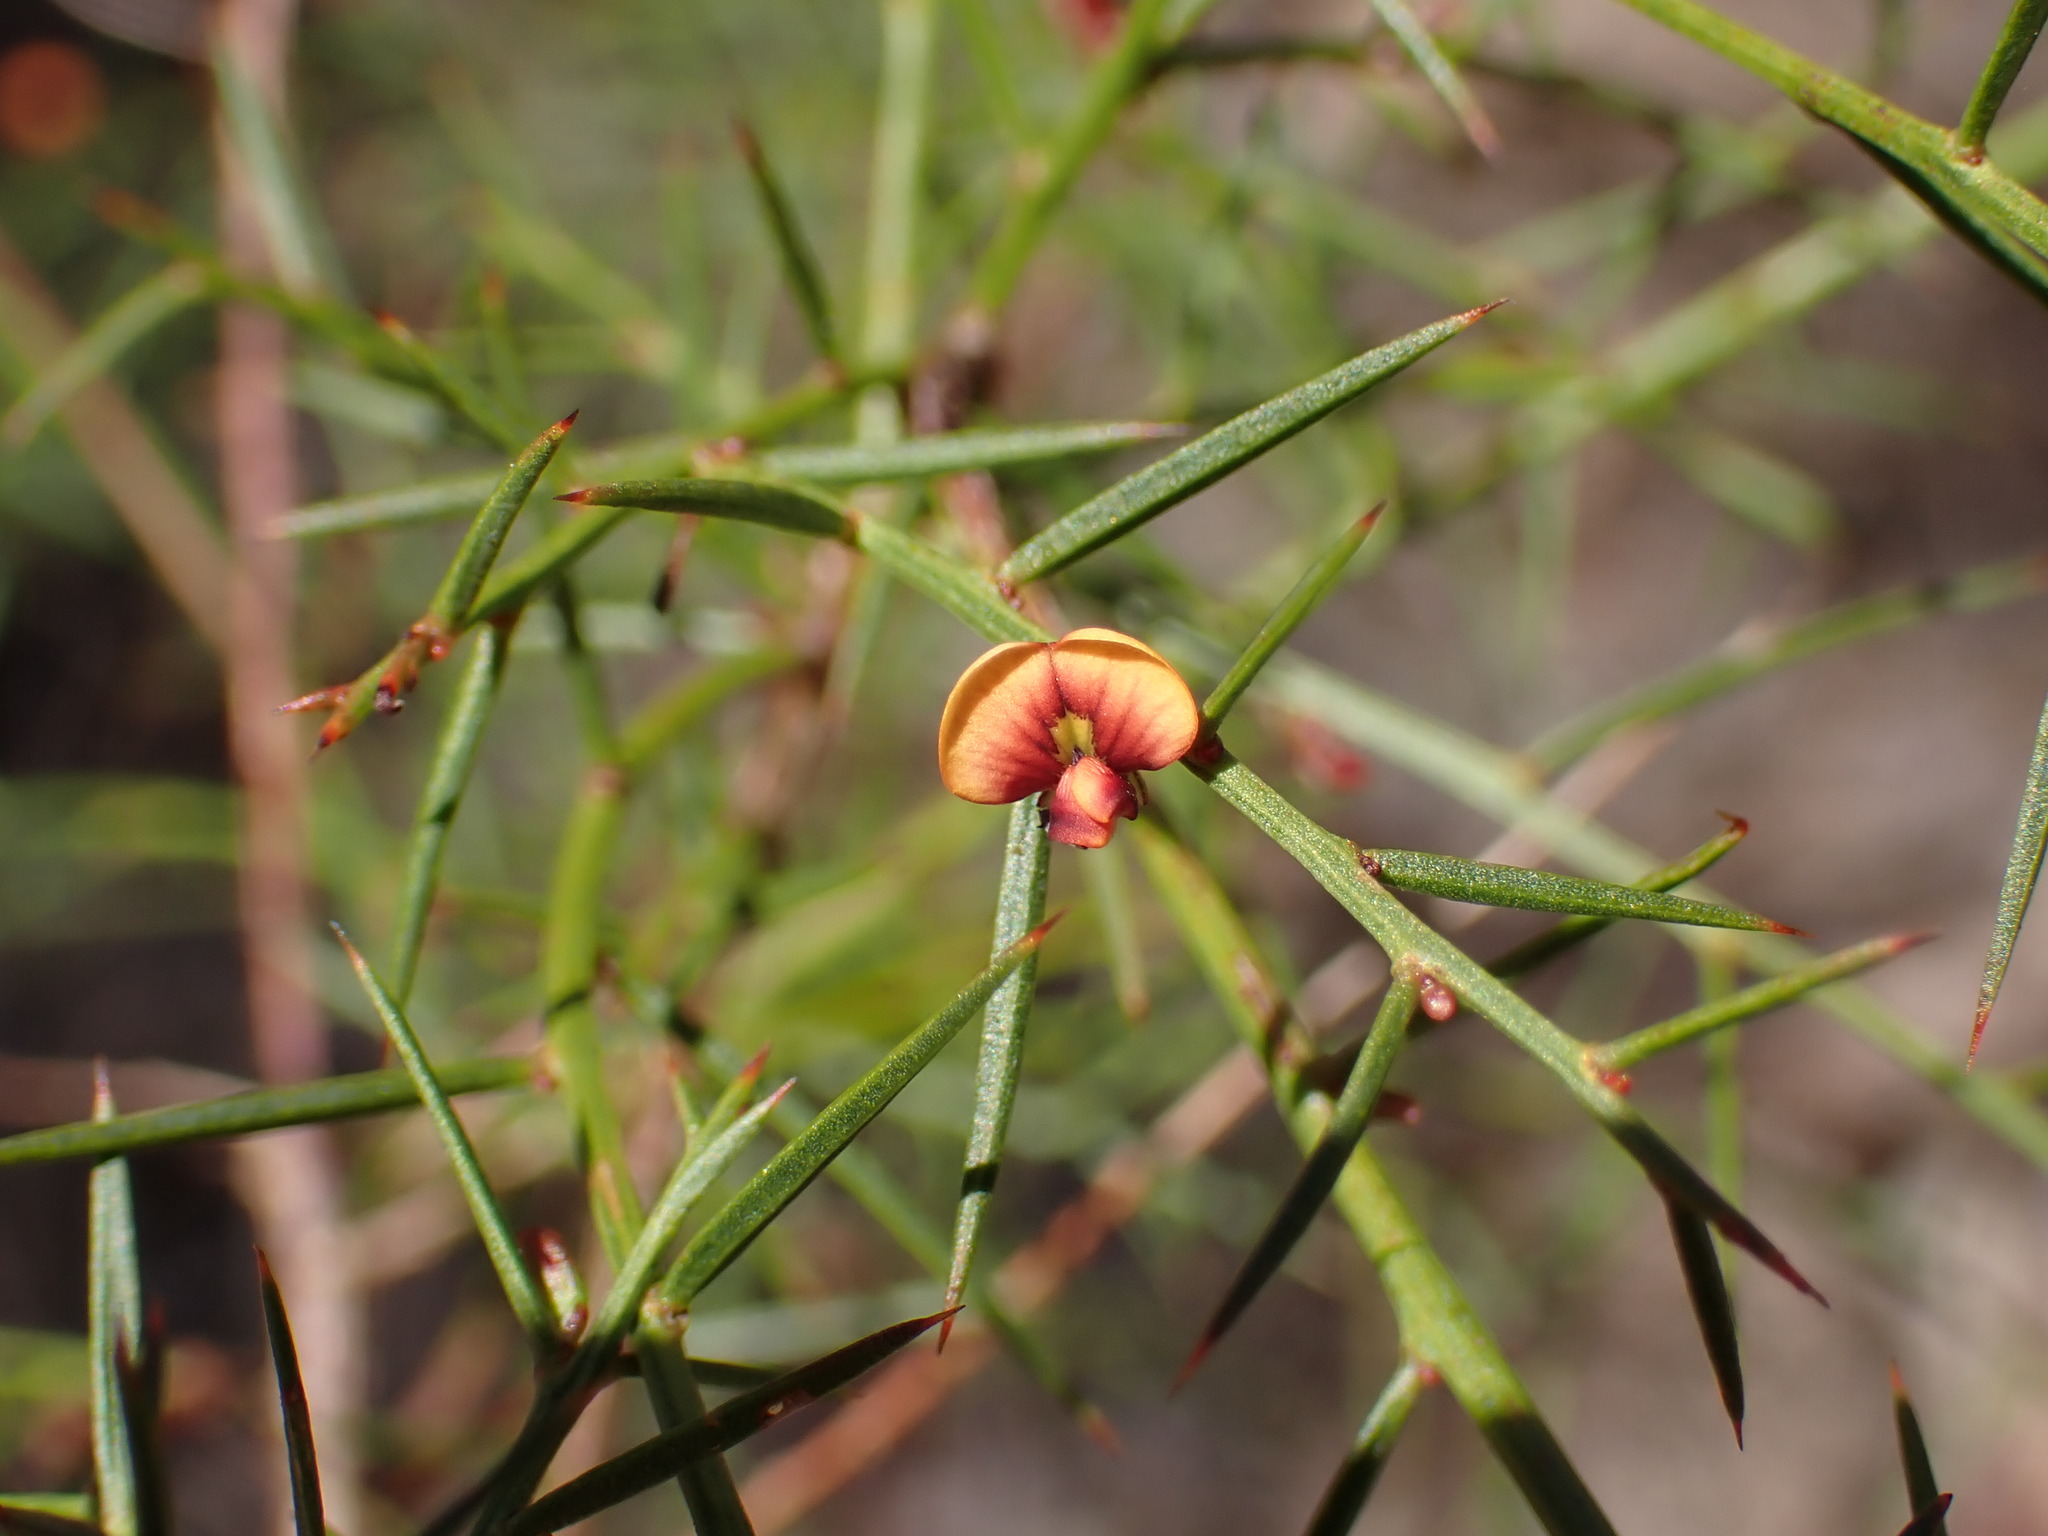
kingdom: Plantae
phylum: Tracheophyta
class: Magnoliopsida
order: Fabales
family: Fabaceae
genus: Daviesia
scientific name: Daviesia ulicifolia
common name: Gorse bitter-pea
